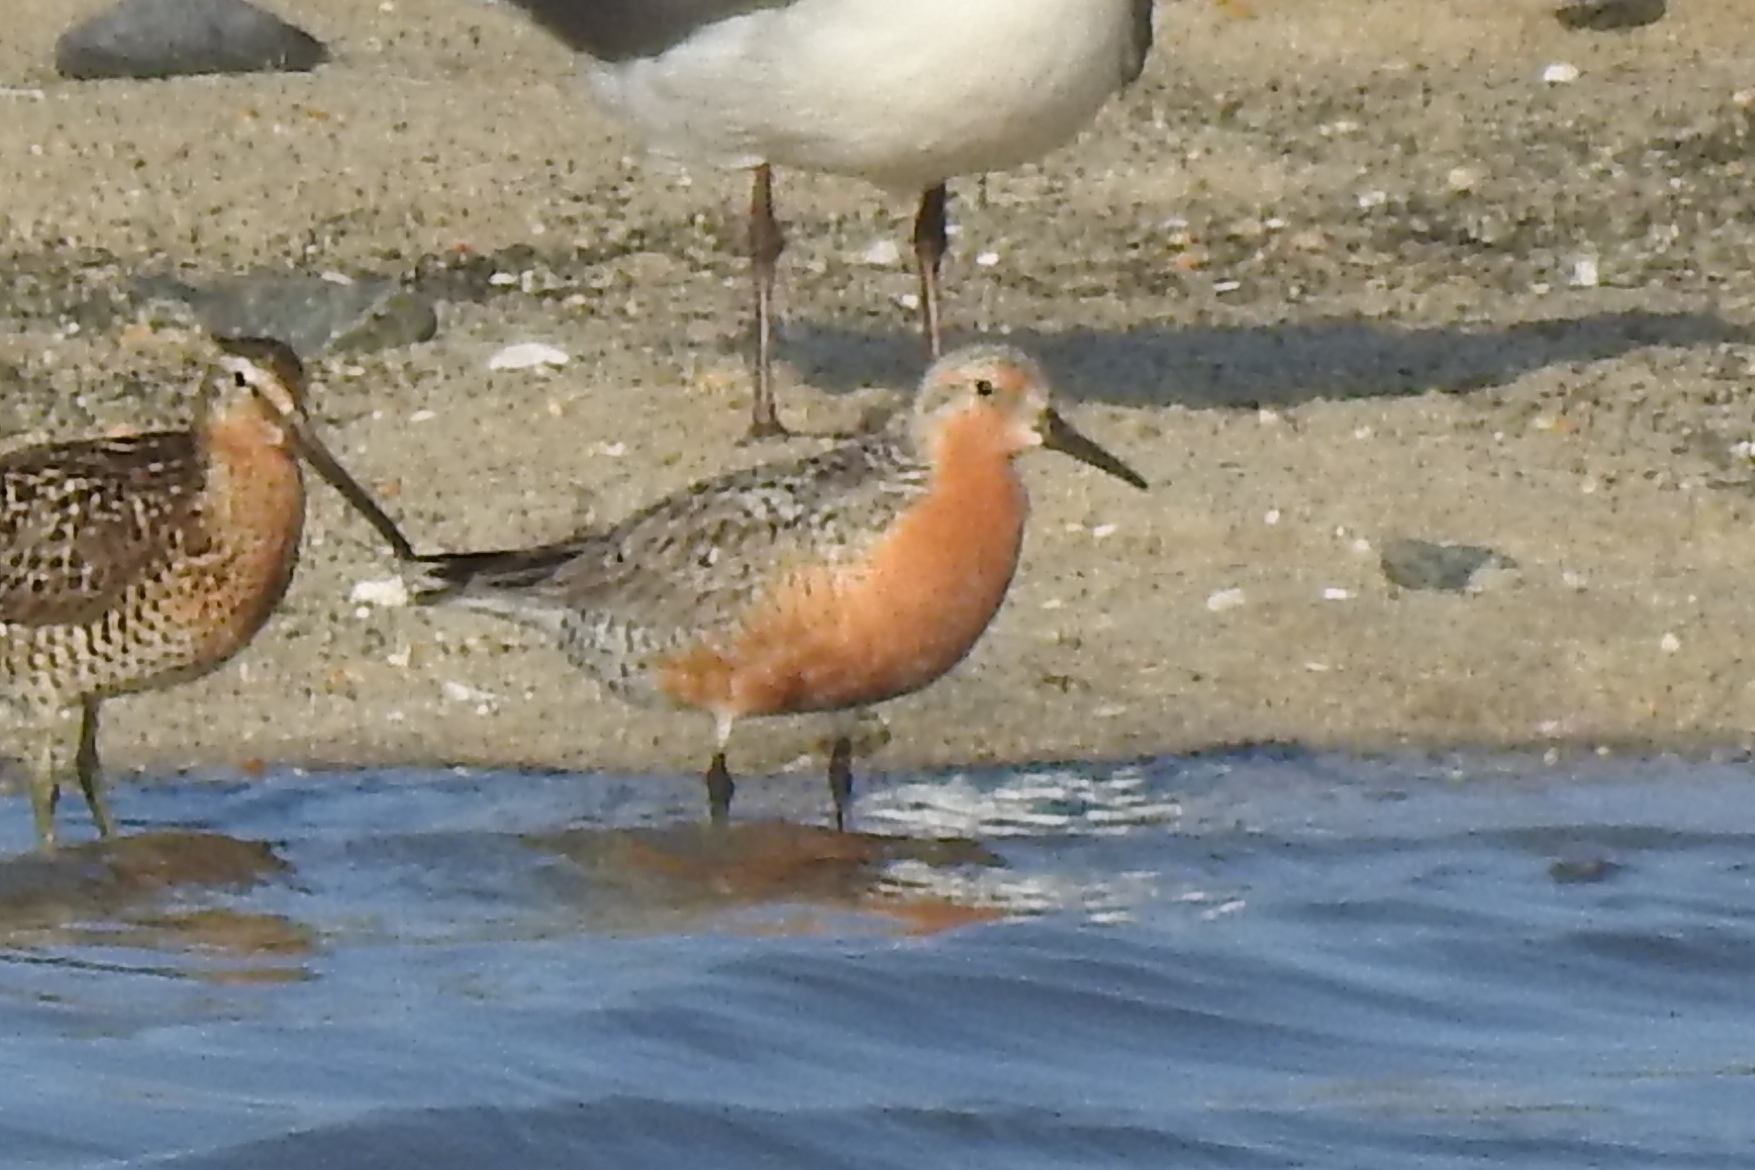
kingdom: Animalia
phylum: Chordata
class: Aves
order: Charadriiformes
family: Scolopacidae
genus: Calidris
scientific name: Calidris canutus
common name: Red knot
